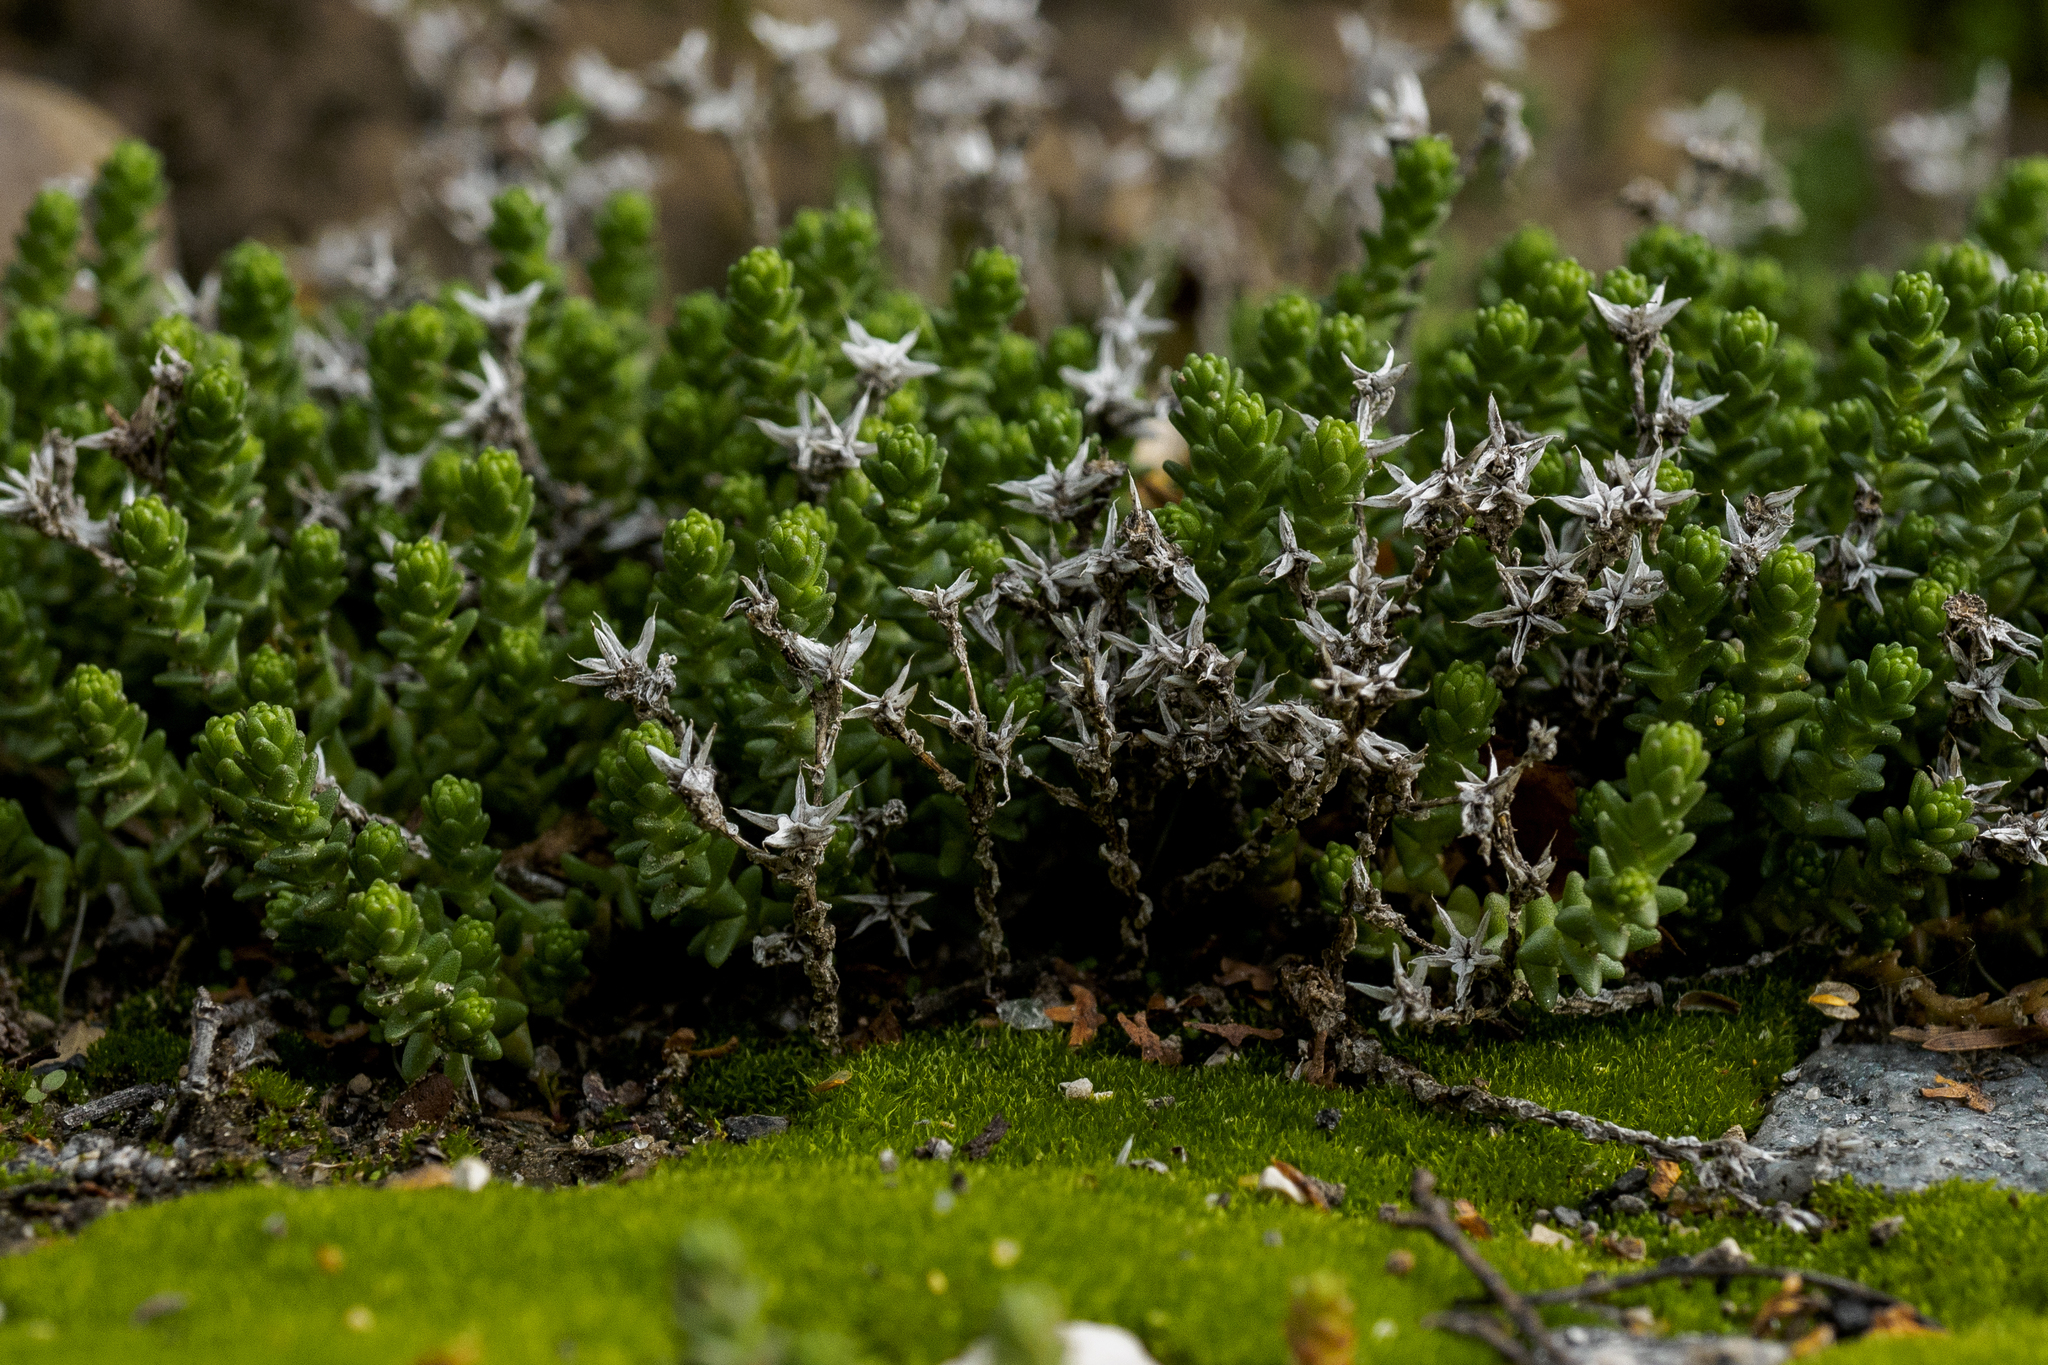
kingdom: Plantae
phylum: Tracheophyta
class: Magnoliopsida
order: Saxifragales
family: Crassulaceae
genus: Sedum
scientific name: Sedum acre
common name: Biting stonecrop
